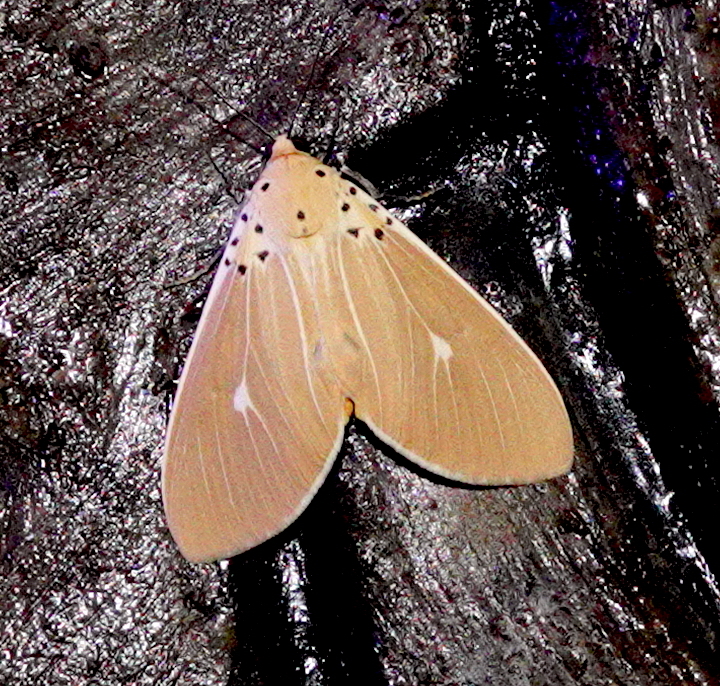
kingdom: Animalia
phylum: Arthropoda
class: Insecta
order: Lepidoptera
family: Erebidae
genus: Asota
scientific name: Asota caricae
